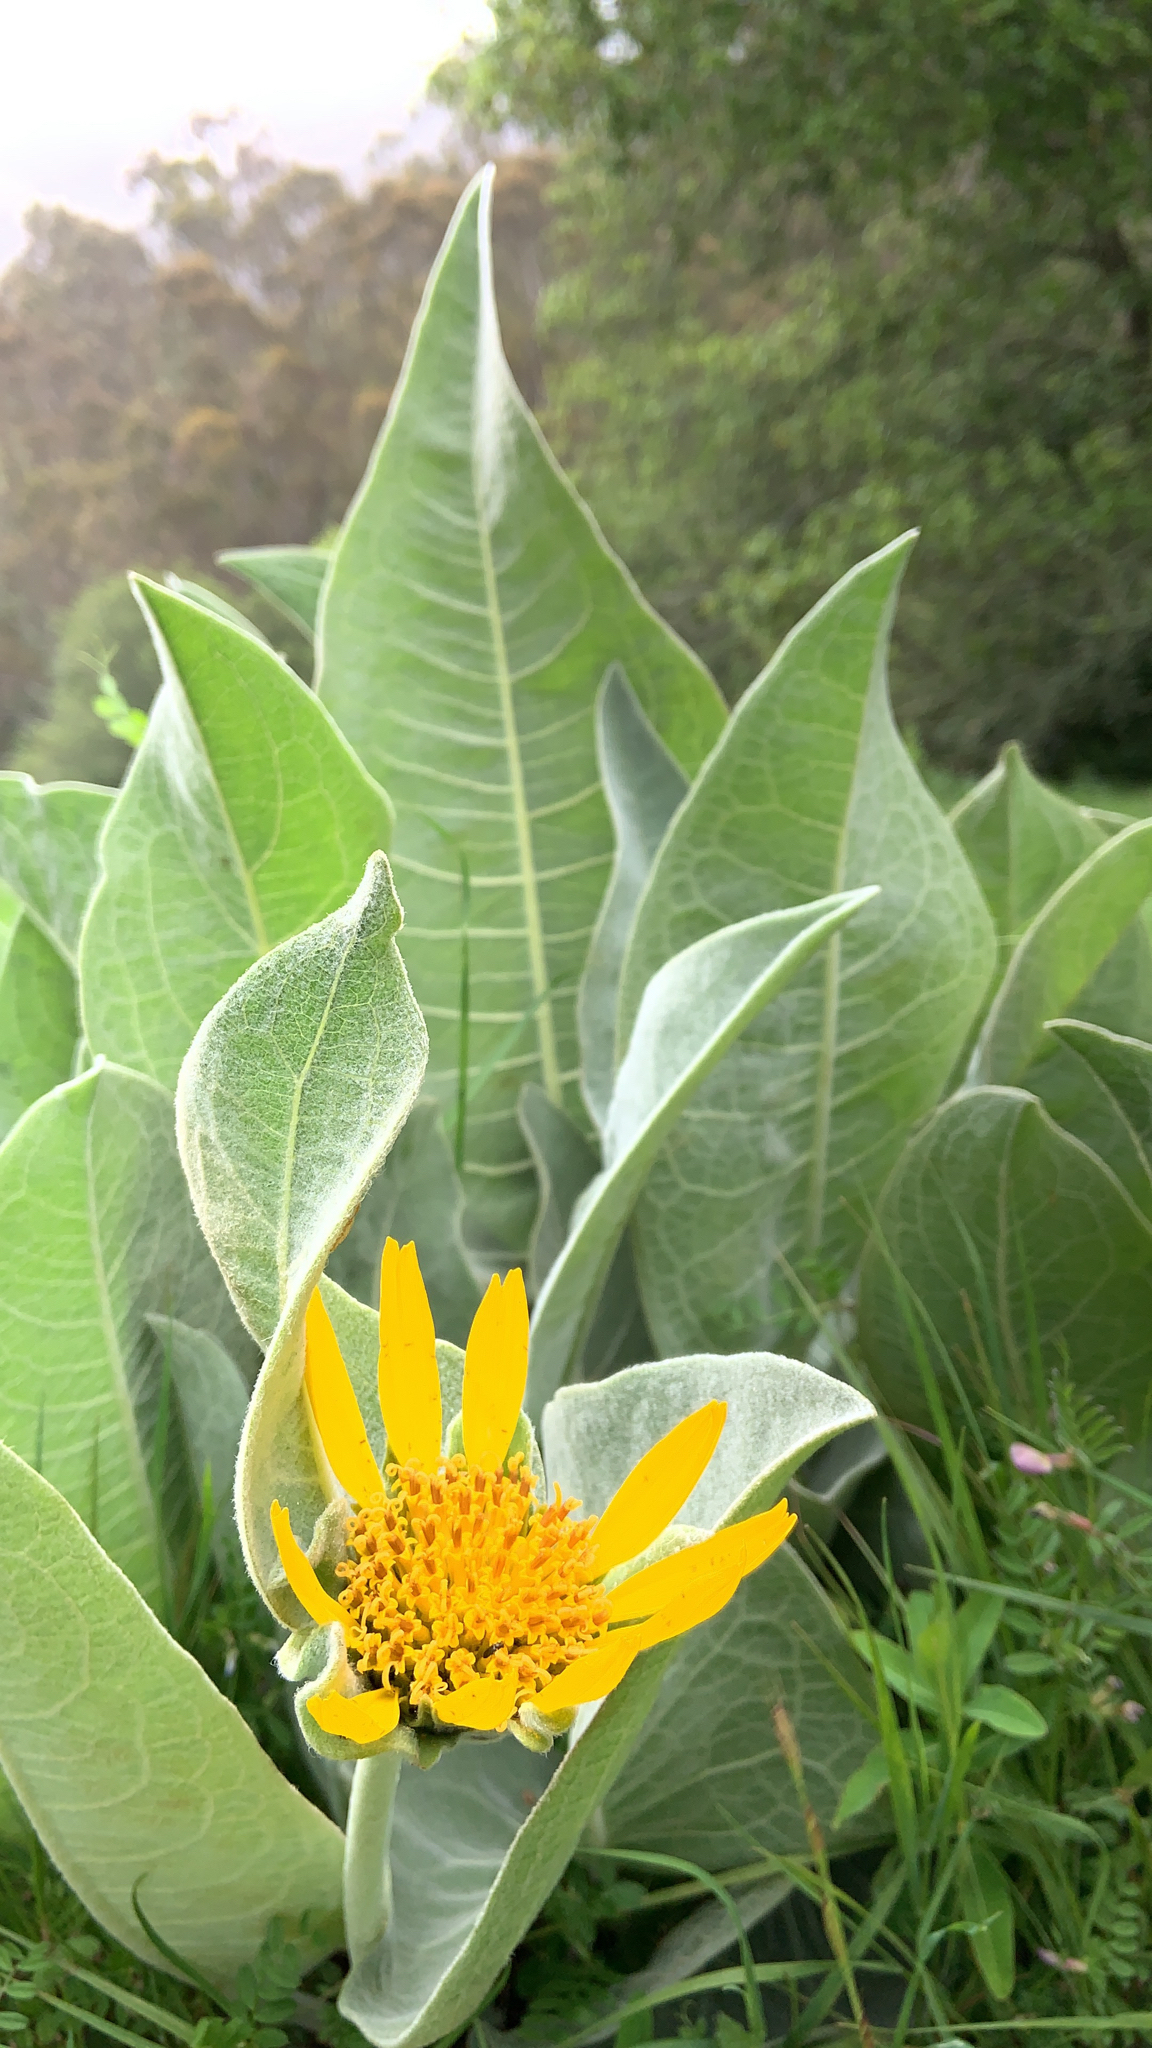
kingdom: Plantae
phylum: Tracheophyta
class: Magnoliopsida
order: Asterales
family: Asteraceae
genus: Wyethia
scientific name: Wyethia helenioides
